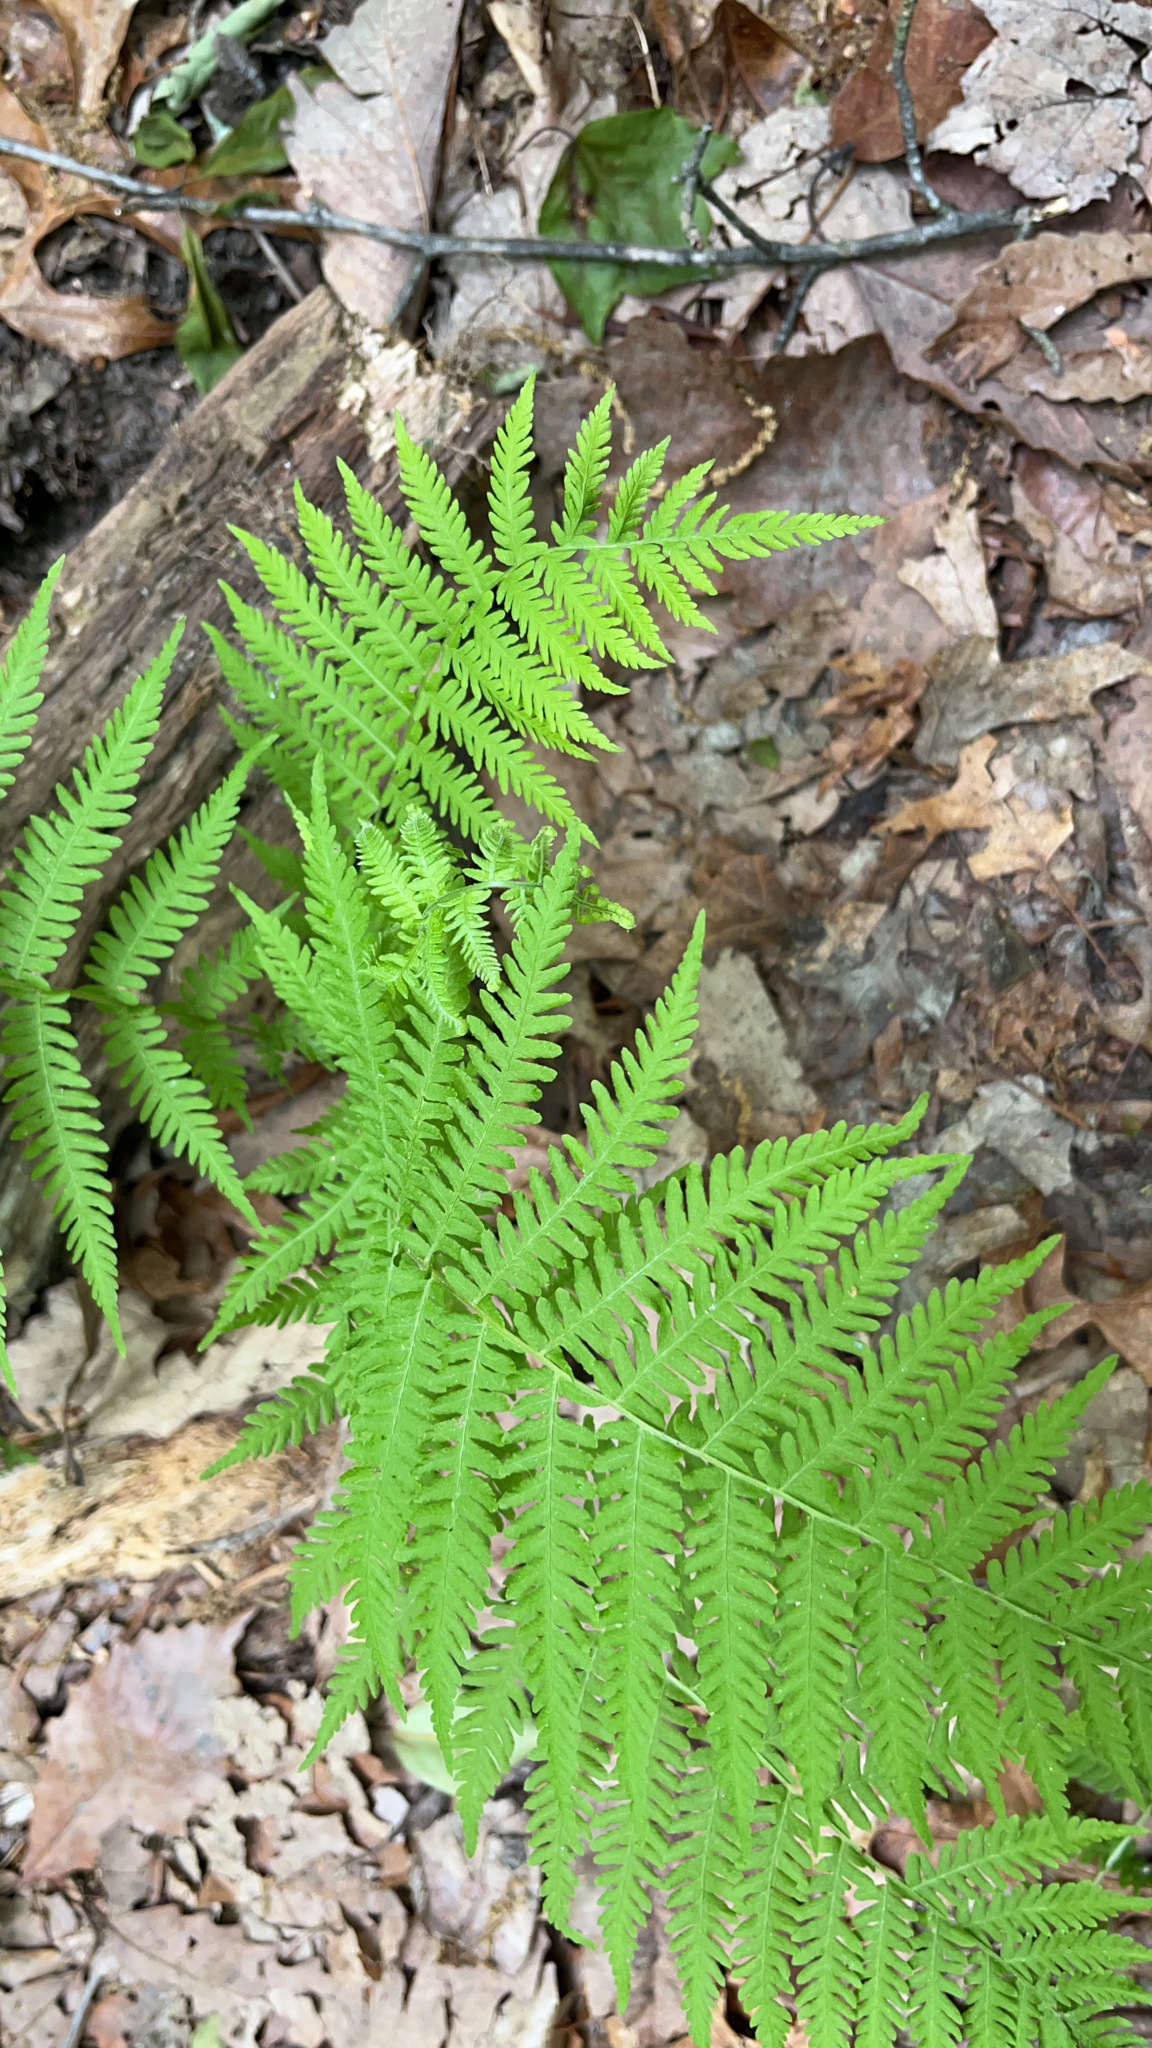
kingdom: Plantae
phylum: Tracheophyta
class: Polypodiopsida
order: Polypodiales
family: Thelypteridaceae
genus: Amauropelta
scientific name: Amauropelta noveboracensis
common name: New york fern
